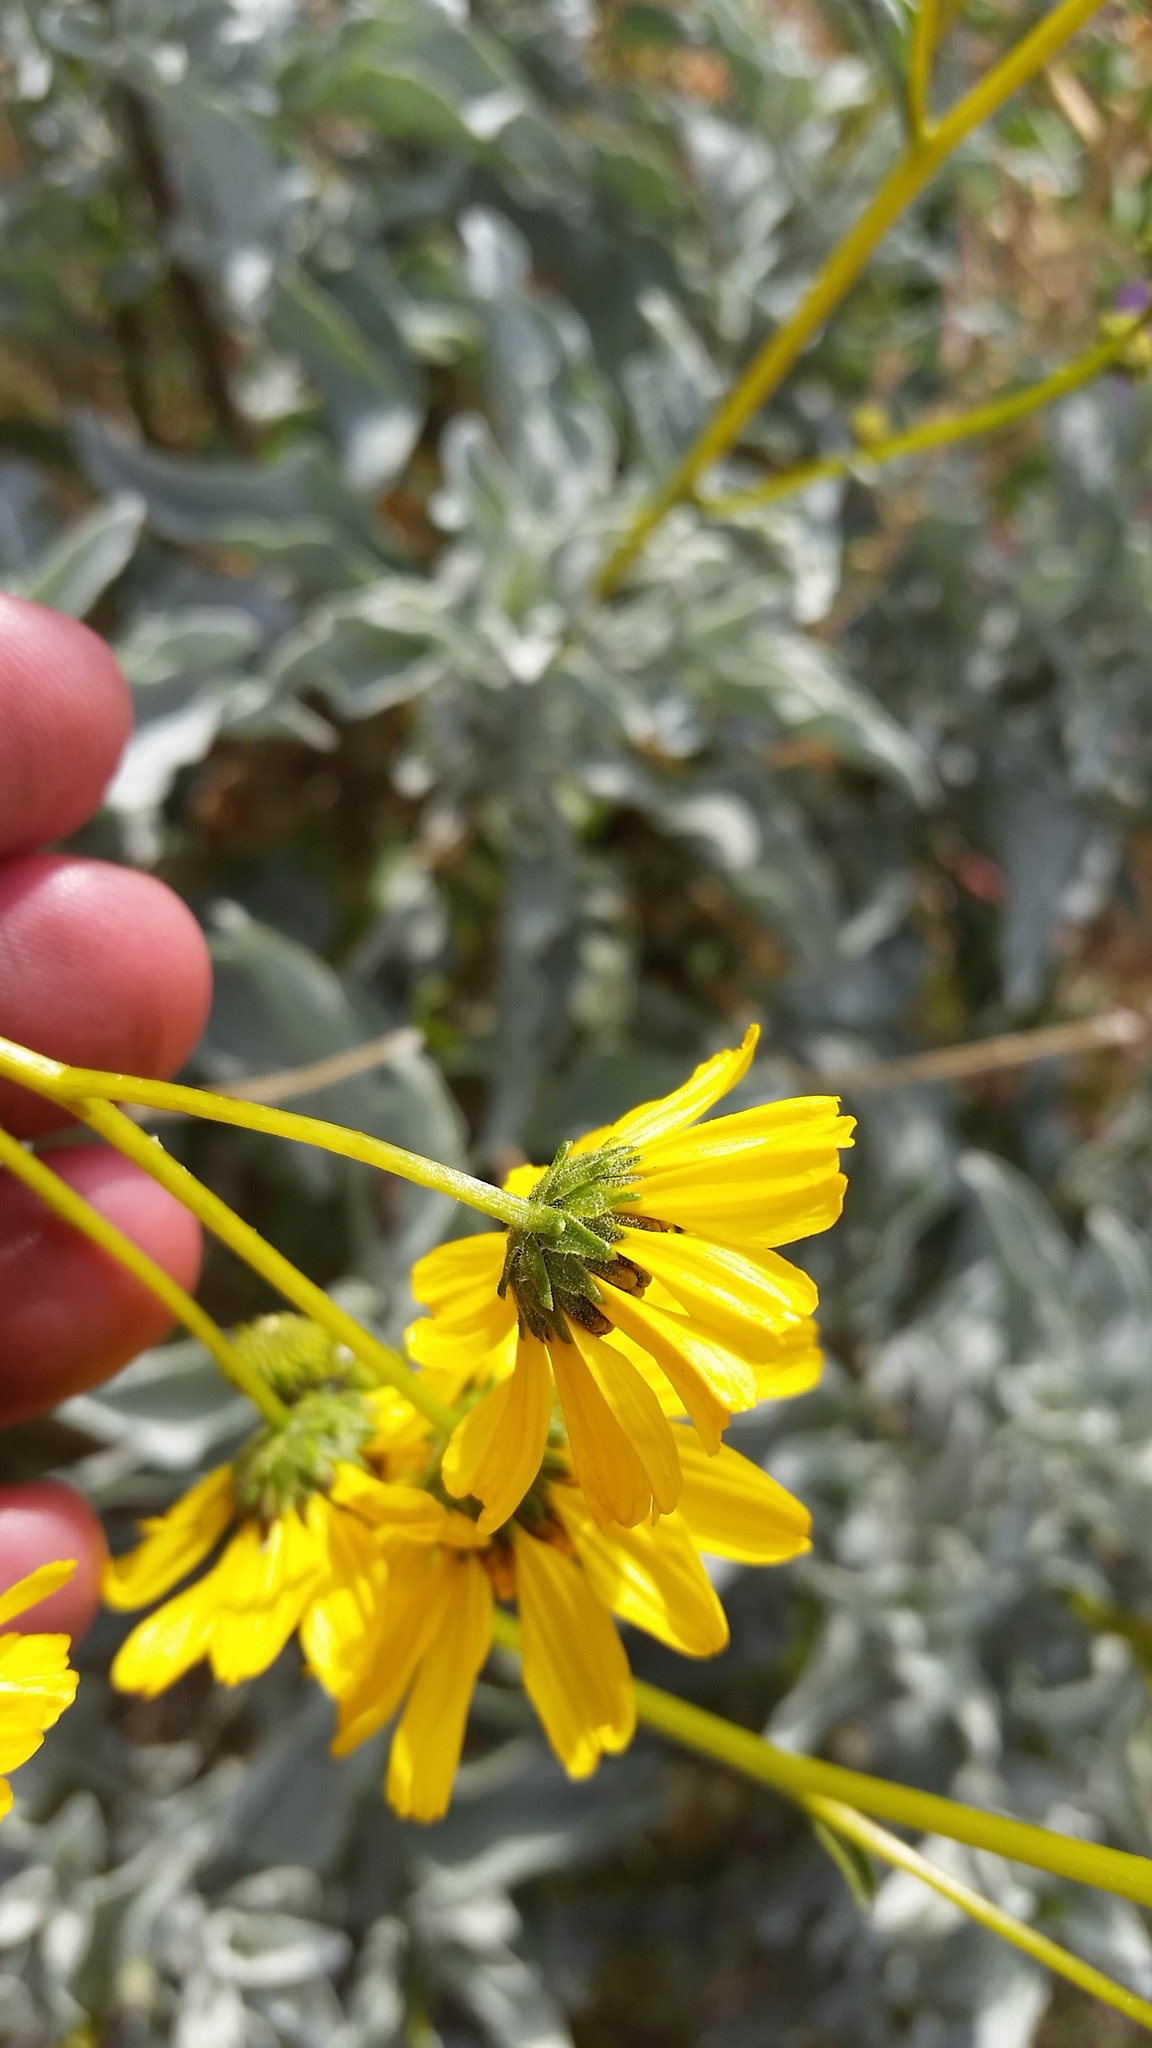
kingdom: Plantae
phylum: Tracheophyta
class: Magnoliopsida
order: Asterales
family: Asteraceae
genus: Encelia
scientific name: Encelia farinosa
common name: Brittlebush
